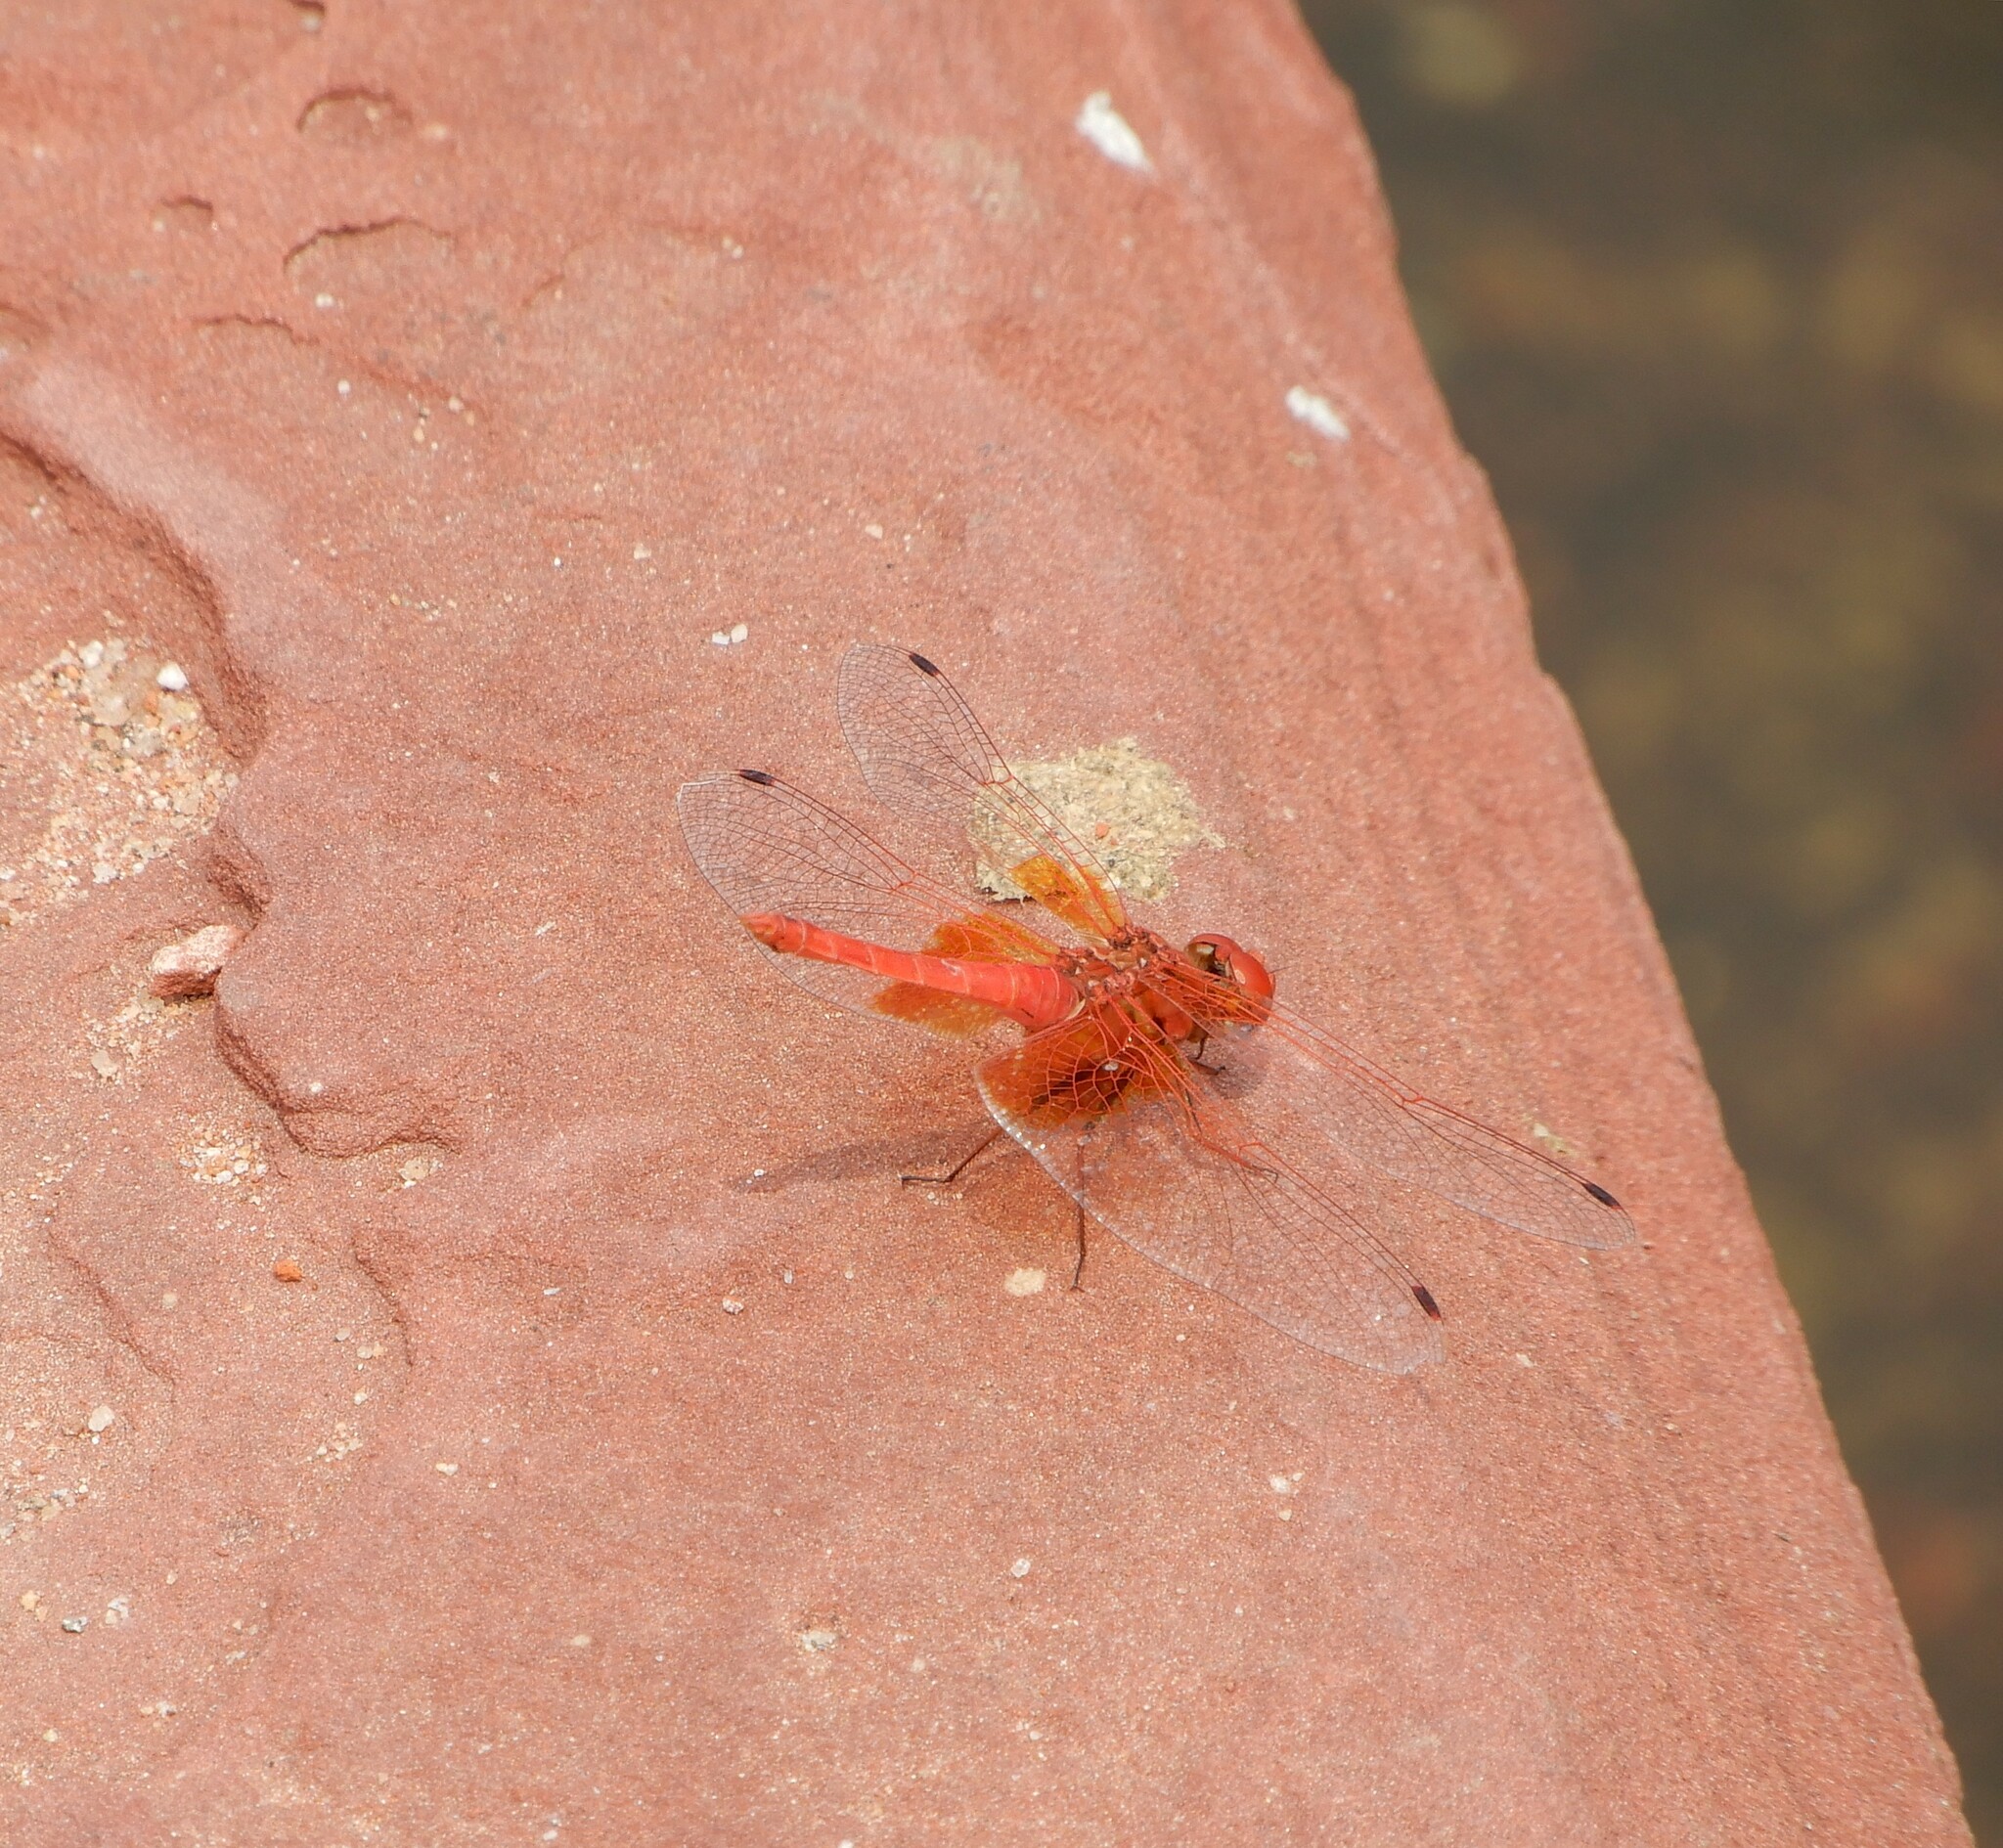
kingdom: Animalia
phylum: Arthropoda
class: Insecta
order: Odonata
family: Libellulidae
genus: Trithemis
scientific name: Trithemis kirbyi
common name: Kirby's dropwing
